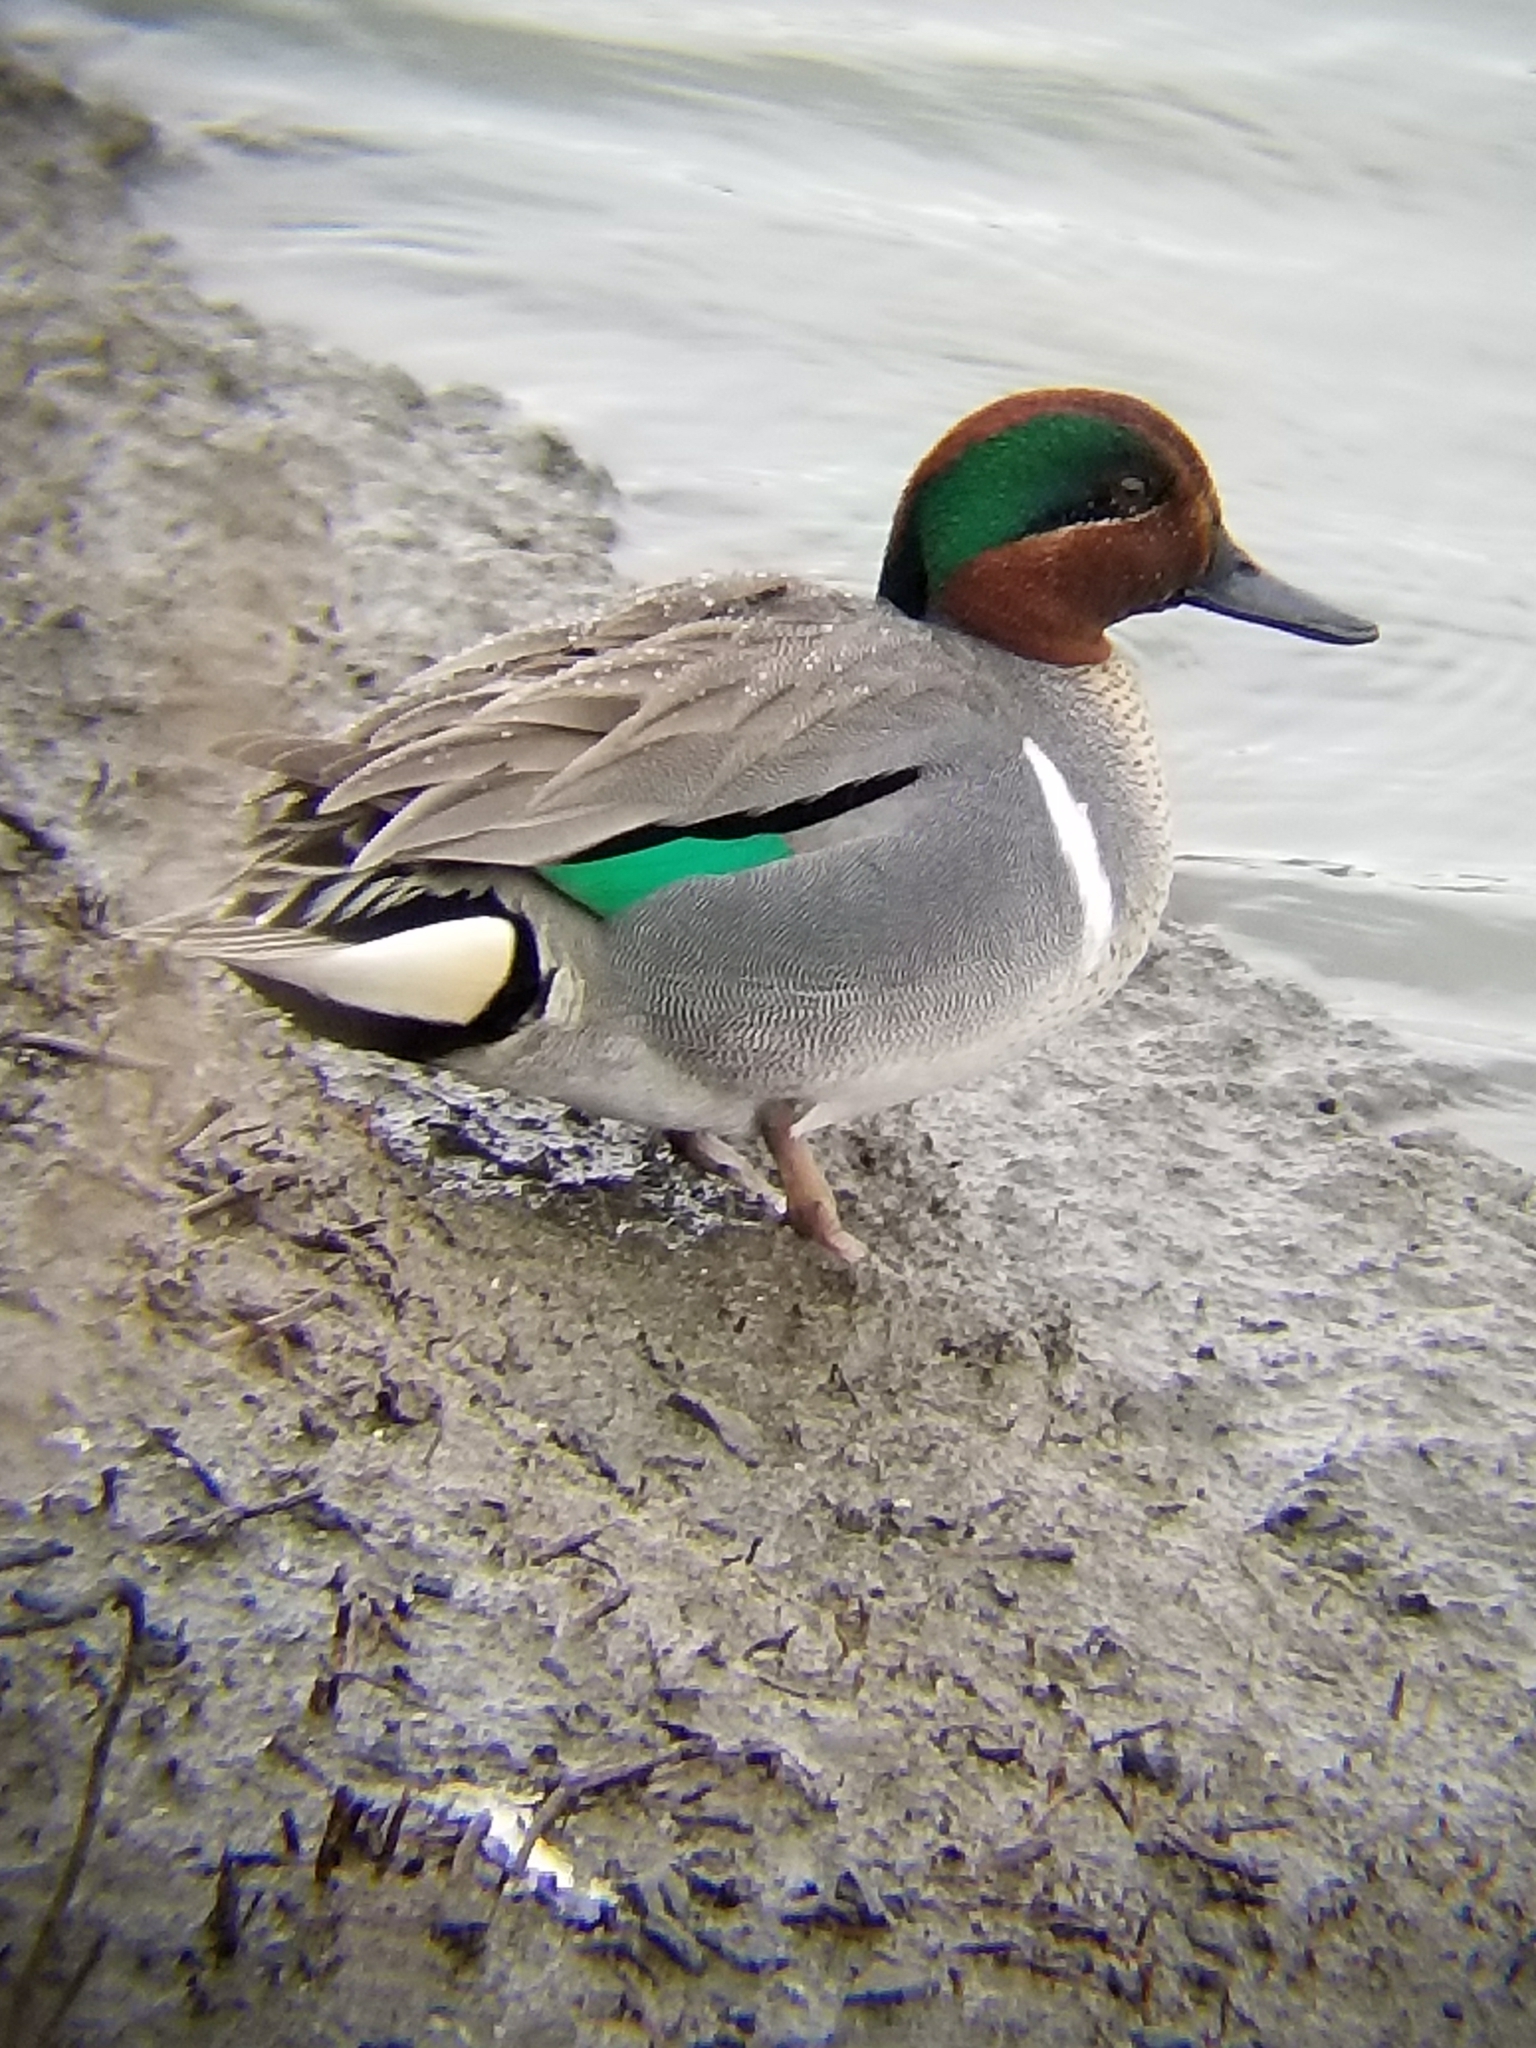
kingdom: Animalia
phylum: Chordata
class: Aves
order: Anseriformes
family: Anatidae
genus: Anas
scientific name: Anas crecca
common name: Eurasian teal
